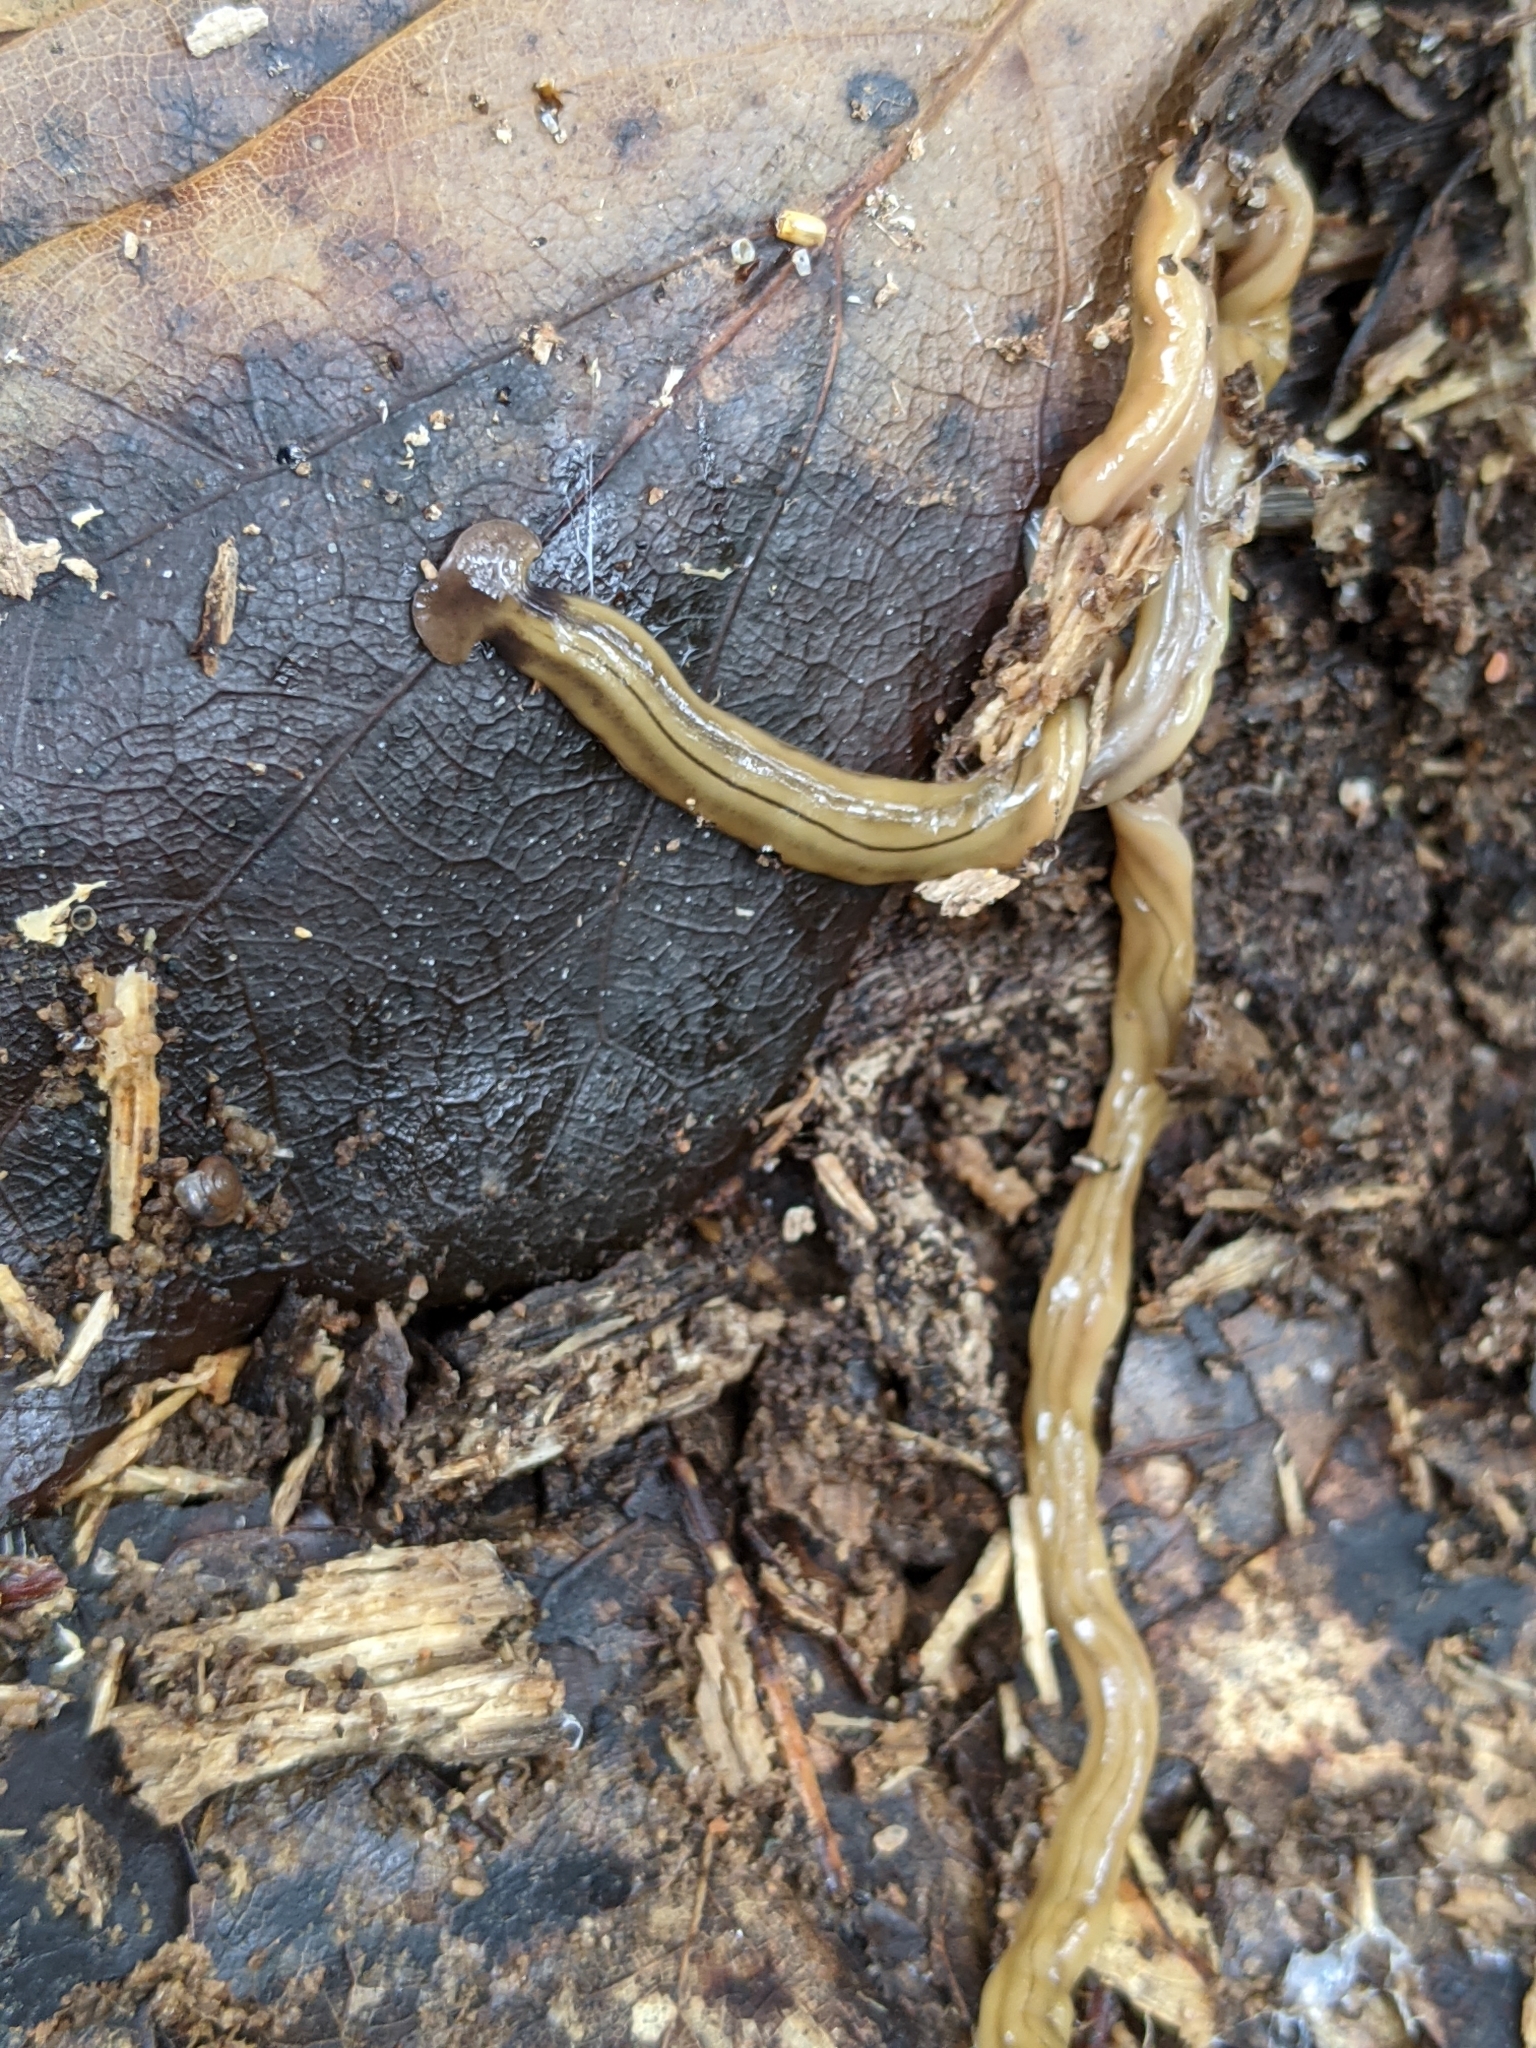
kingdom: Animalia
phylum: Platyhelminthes
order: Tricladida
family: Geoplanidae
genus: Bipalium
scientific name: Bipalium kewense
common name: Hammerhead flatworm
